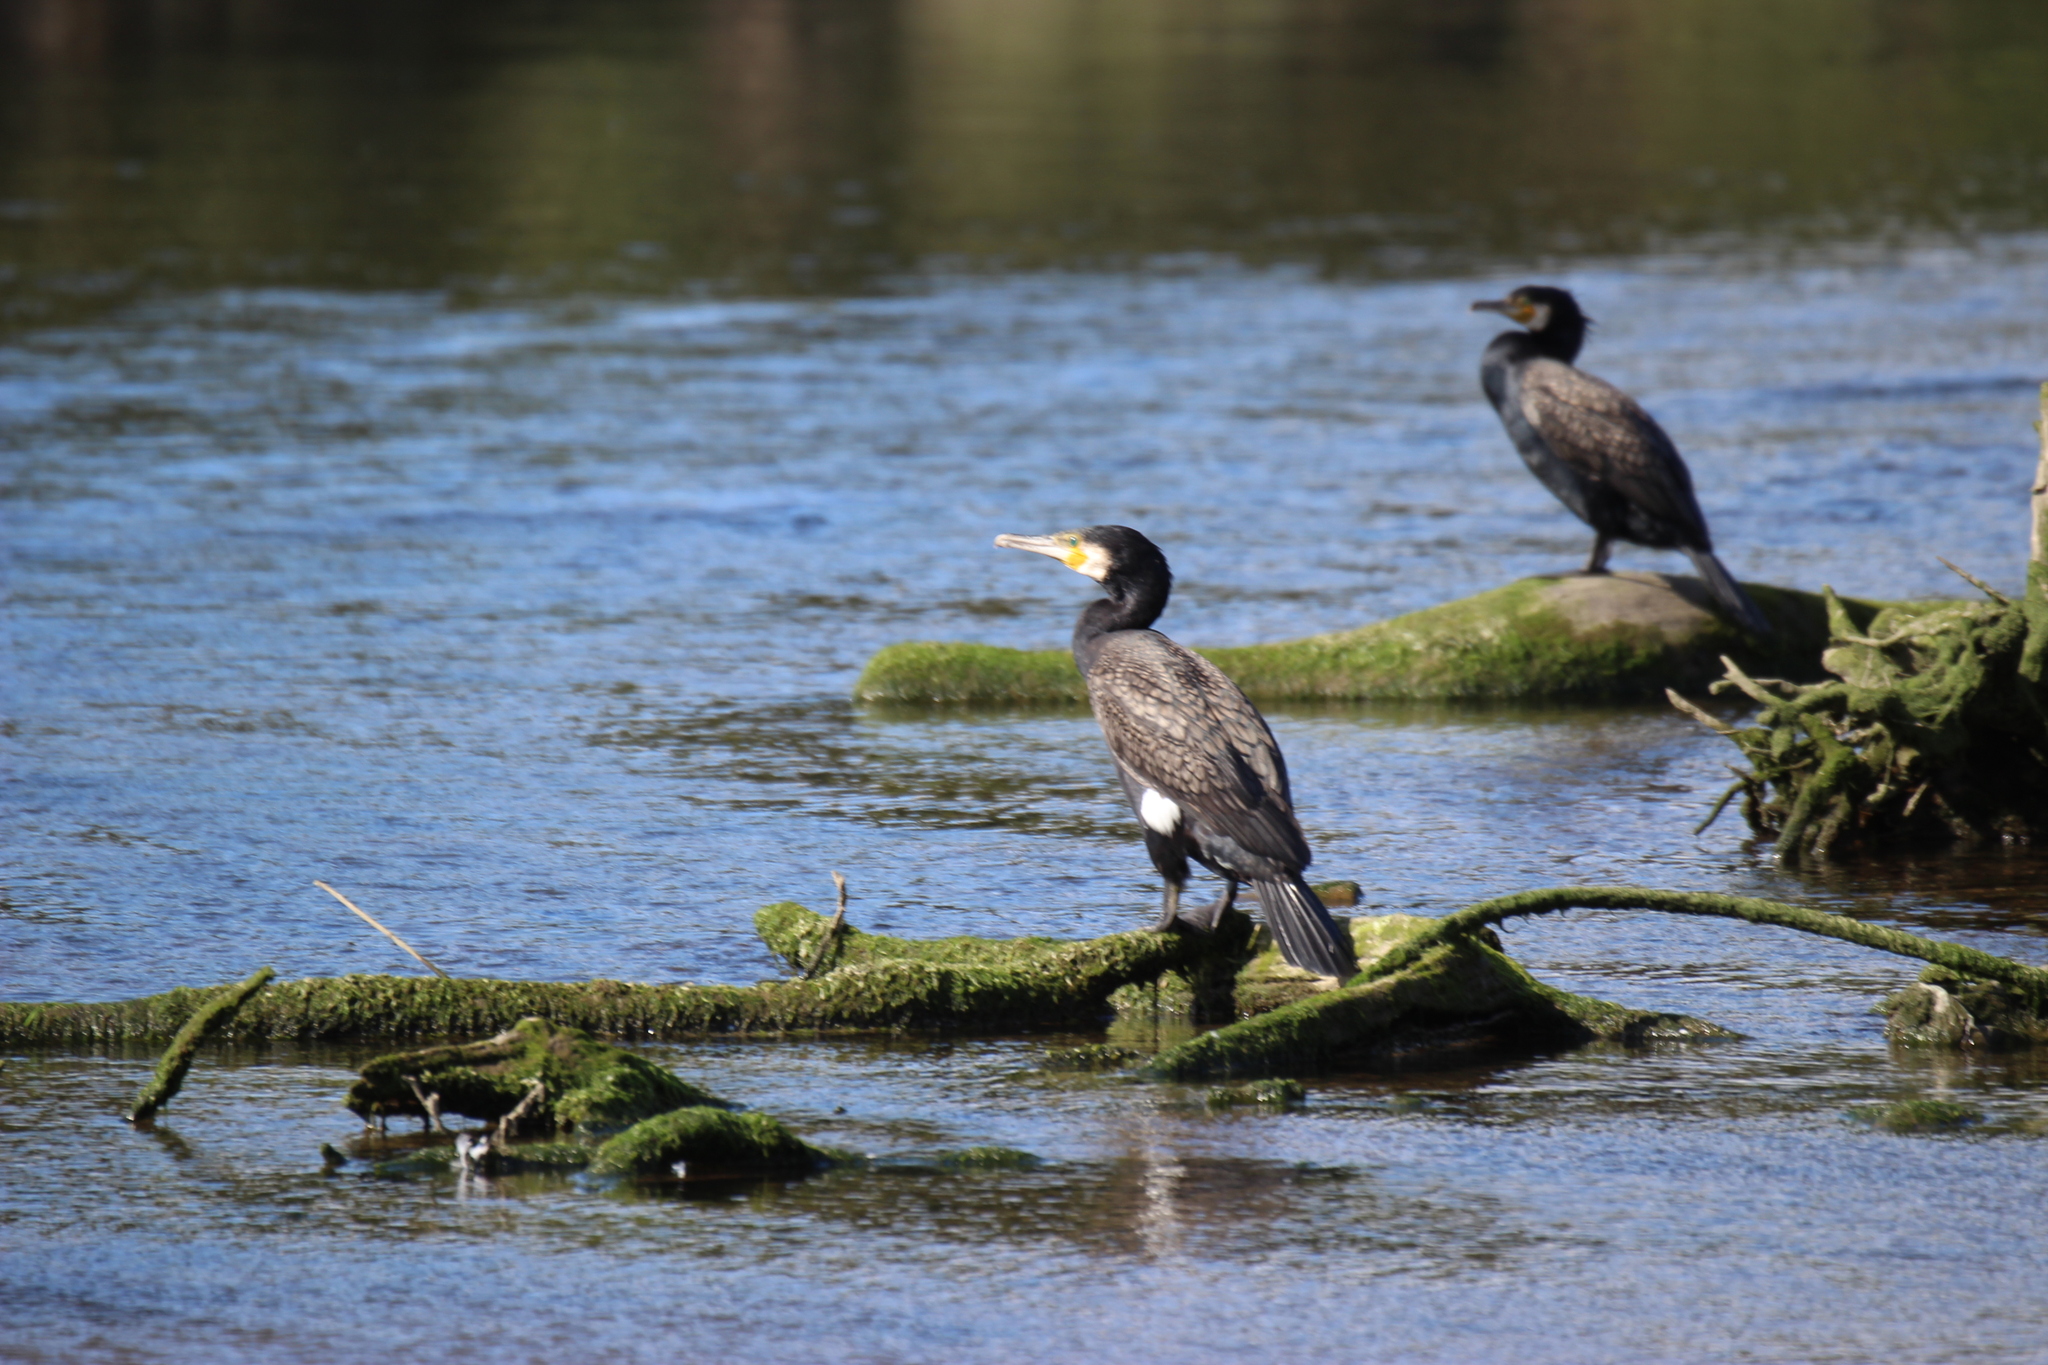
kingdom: Animalia
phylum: Chordata
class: Aves
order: Suliformes
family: Phalacrocoracidae
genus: Phalacrocorax
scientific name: Phalacrocorax carbo
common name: Great cormorant
